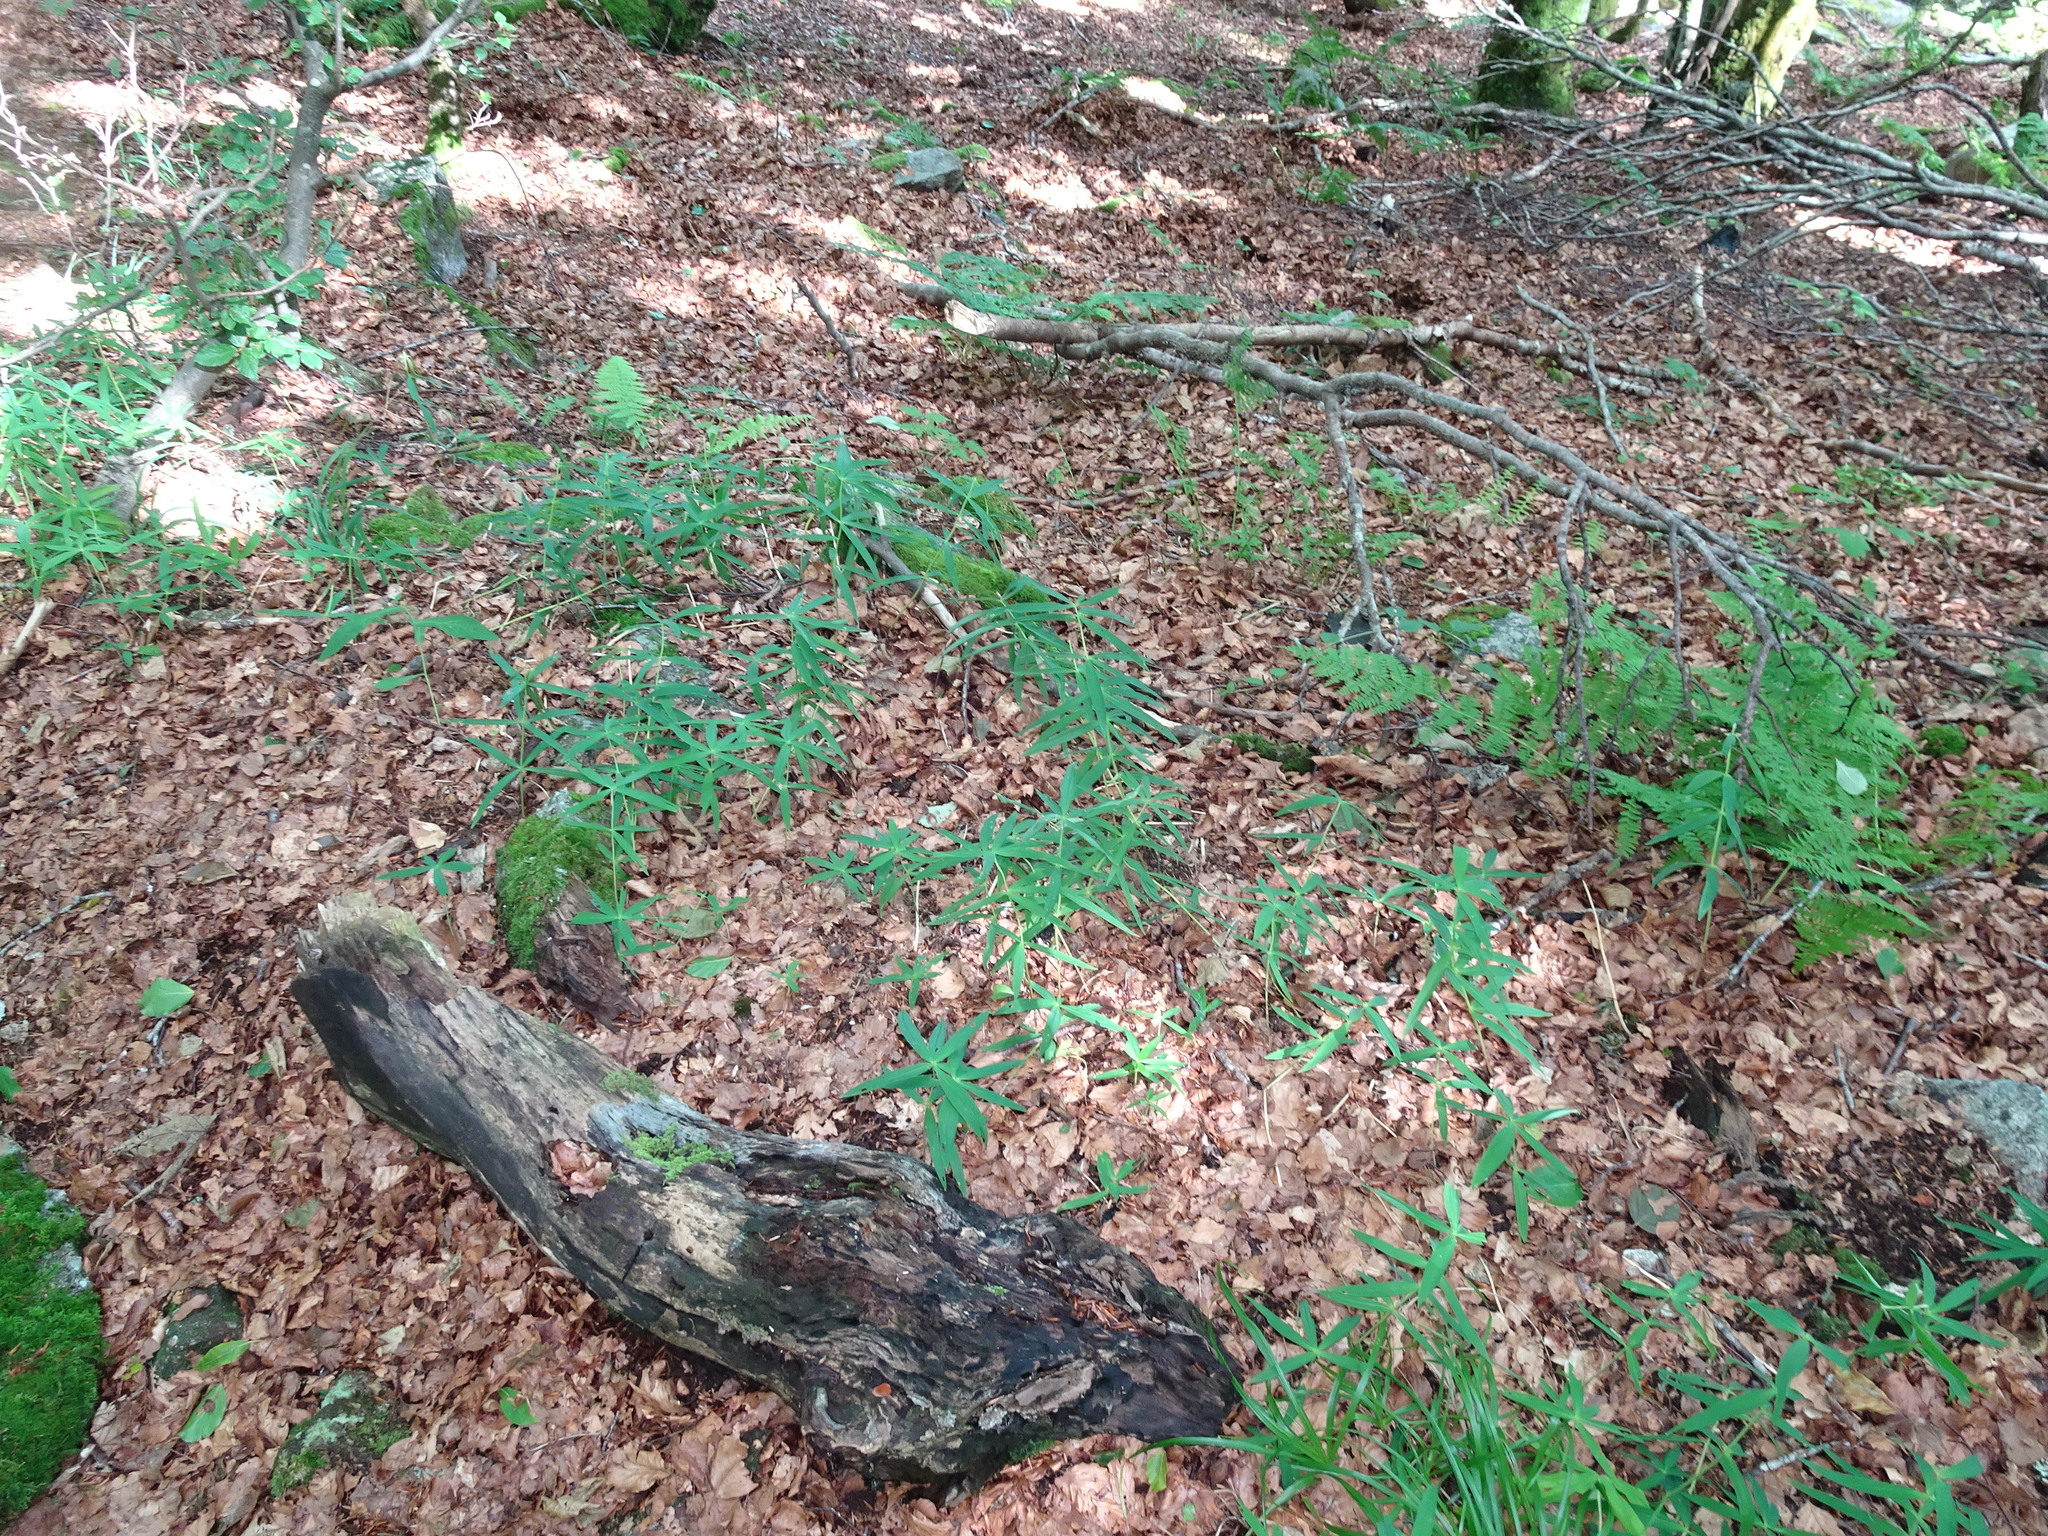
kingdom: Plantae
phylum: Tracheophyta
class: Liliopsida
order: Asparagales
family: Asparagaceae
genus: Polygonatum
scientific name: Polygonatum verticillatum
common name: Whorled solomon's-seal
